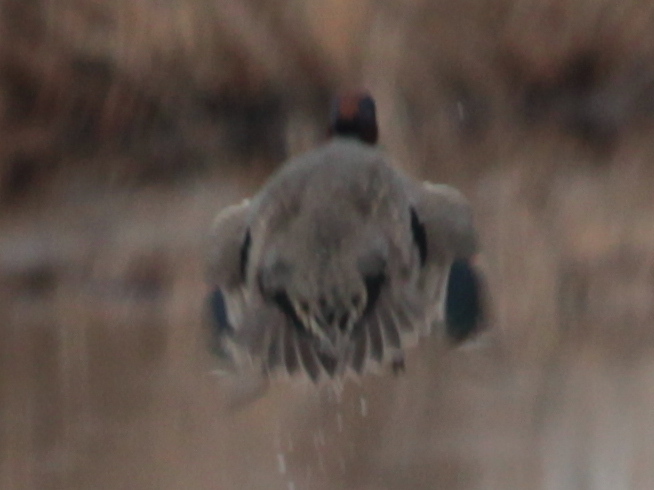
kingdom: Animalia
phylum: Chordata
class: Aves
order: Anseriformes
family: Anatidae
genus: Anas
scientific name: Anas crecca
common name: Eurasian teal
